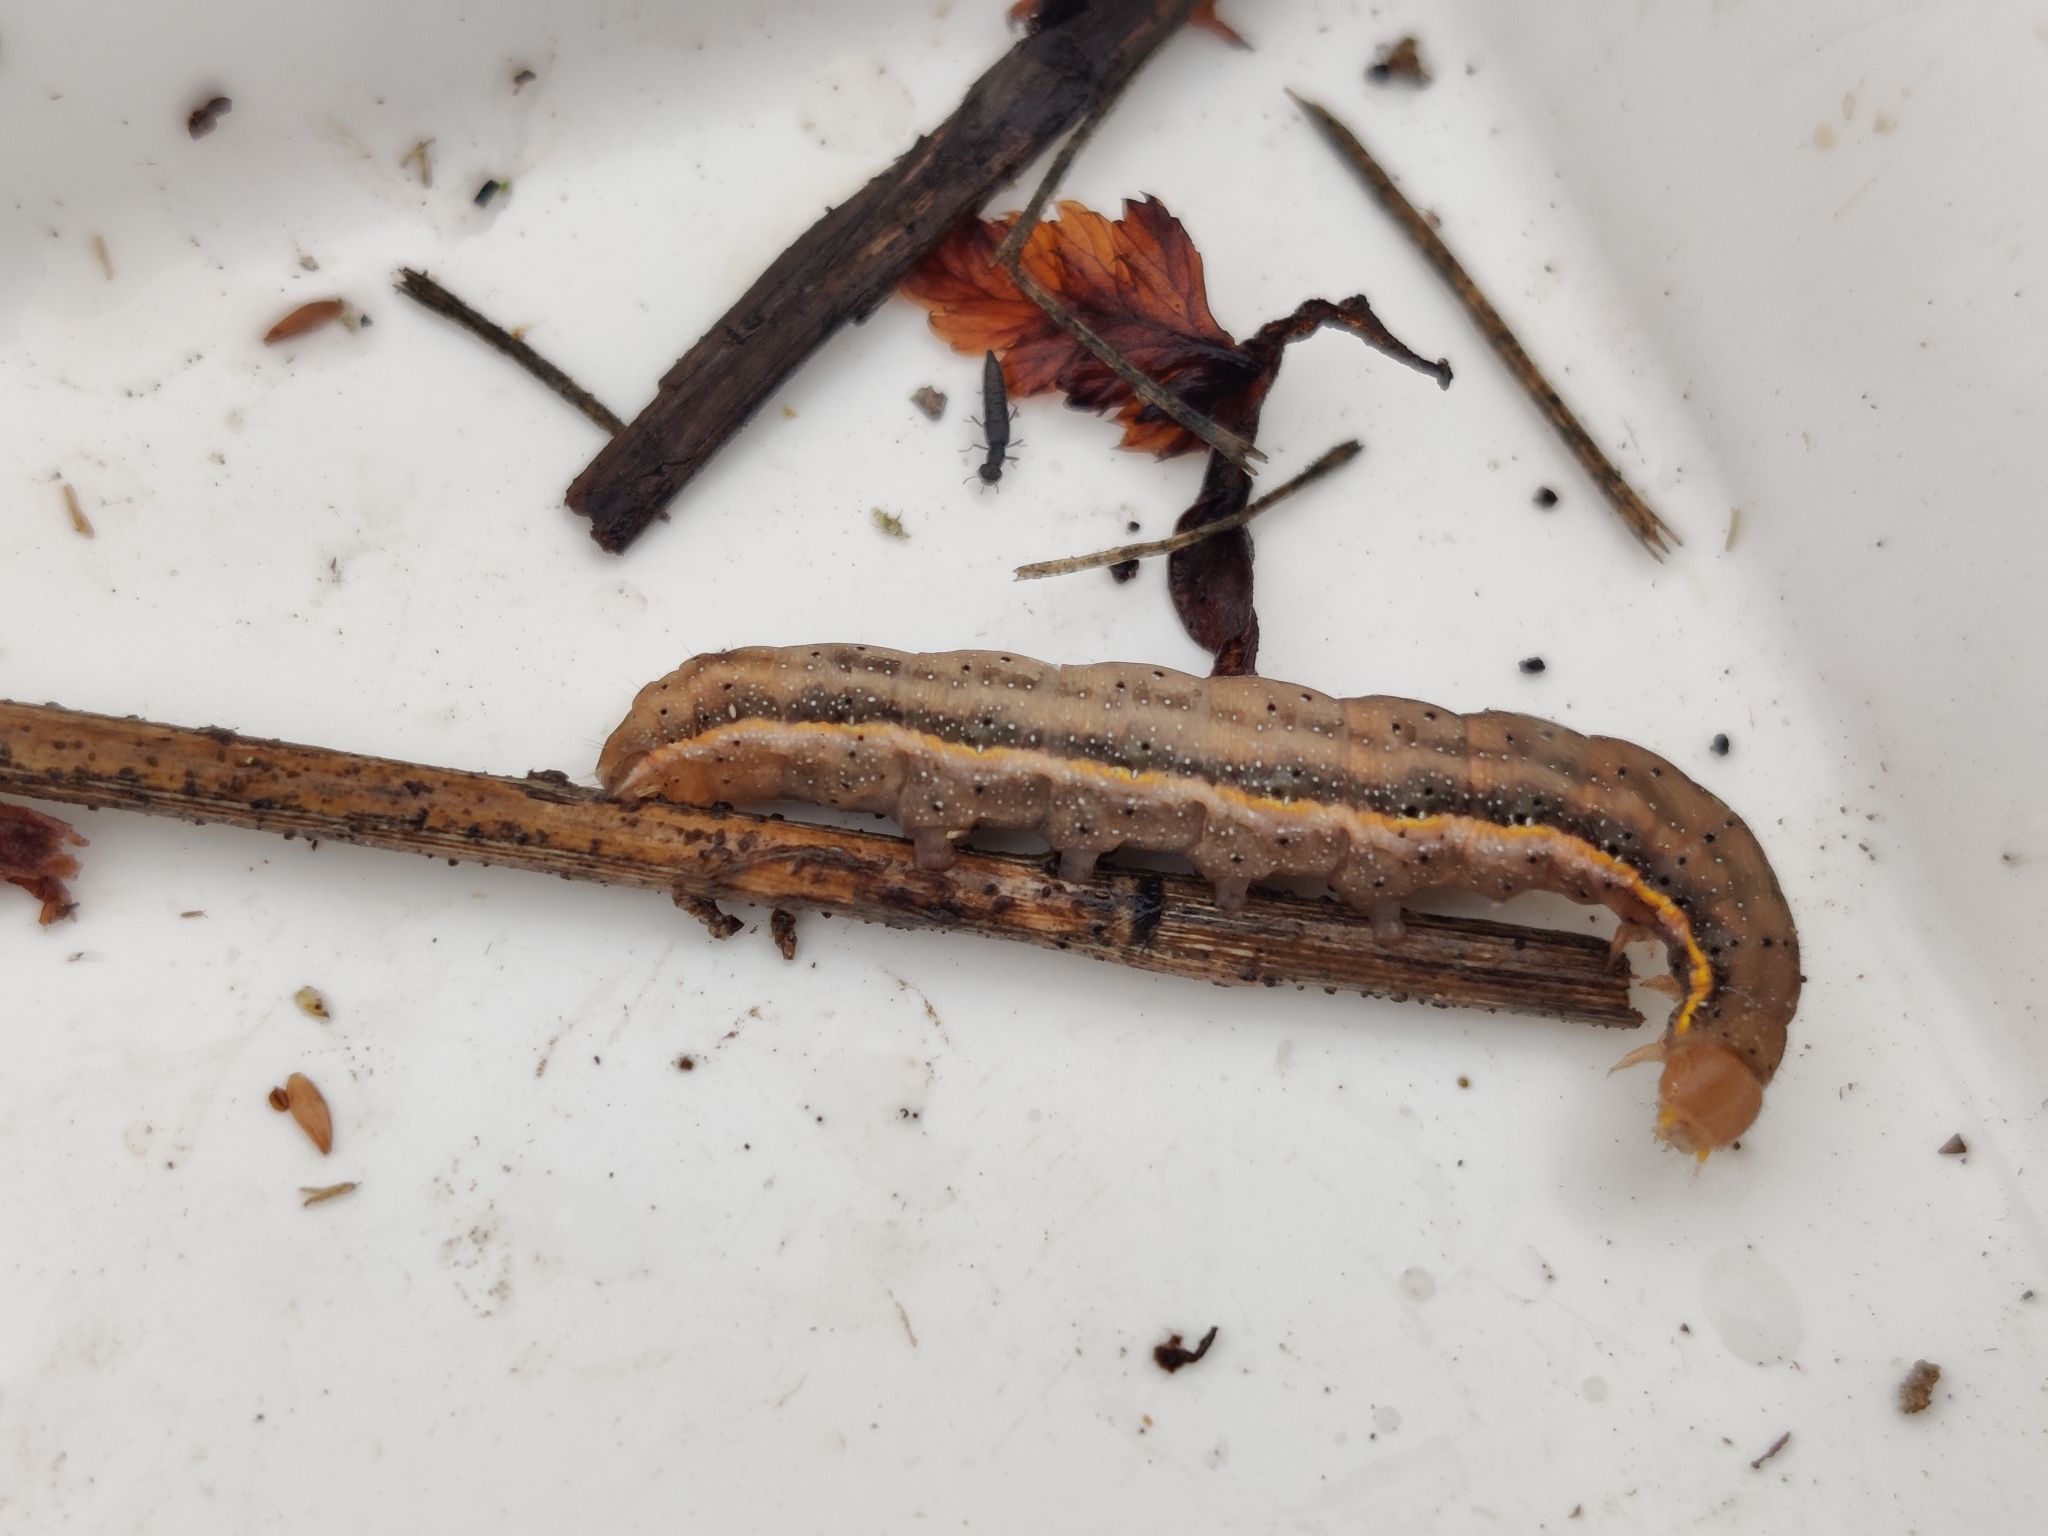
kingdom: Animalia
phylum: Arthropoda
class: Insecta
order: Lepidoptera
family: Noctuidae
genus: Lacanobia
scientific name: Lacanobia oleracea
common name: Bright-line brown-eye
